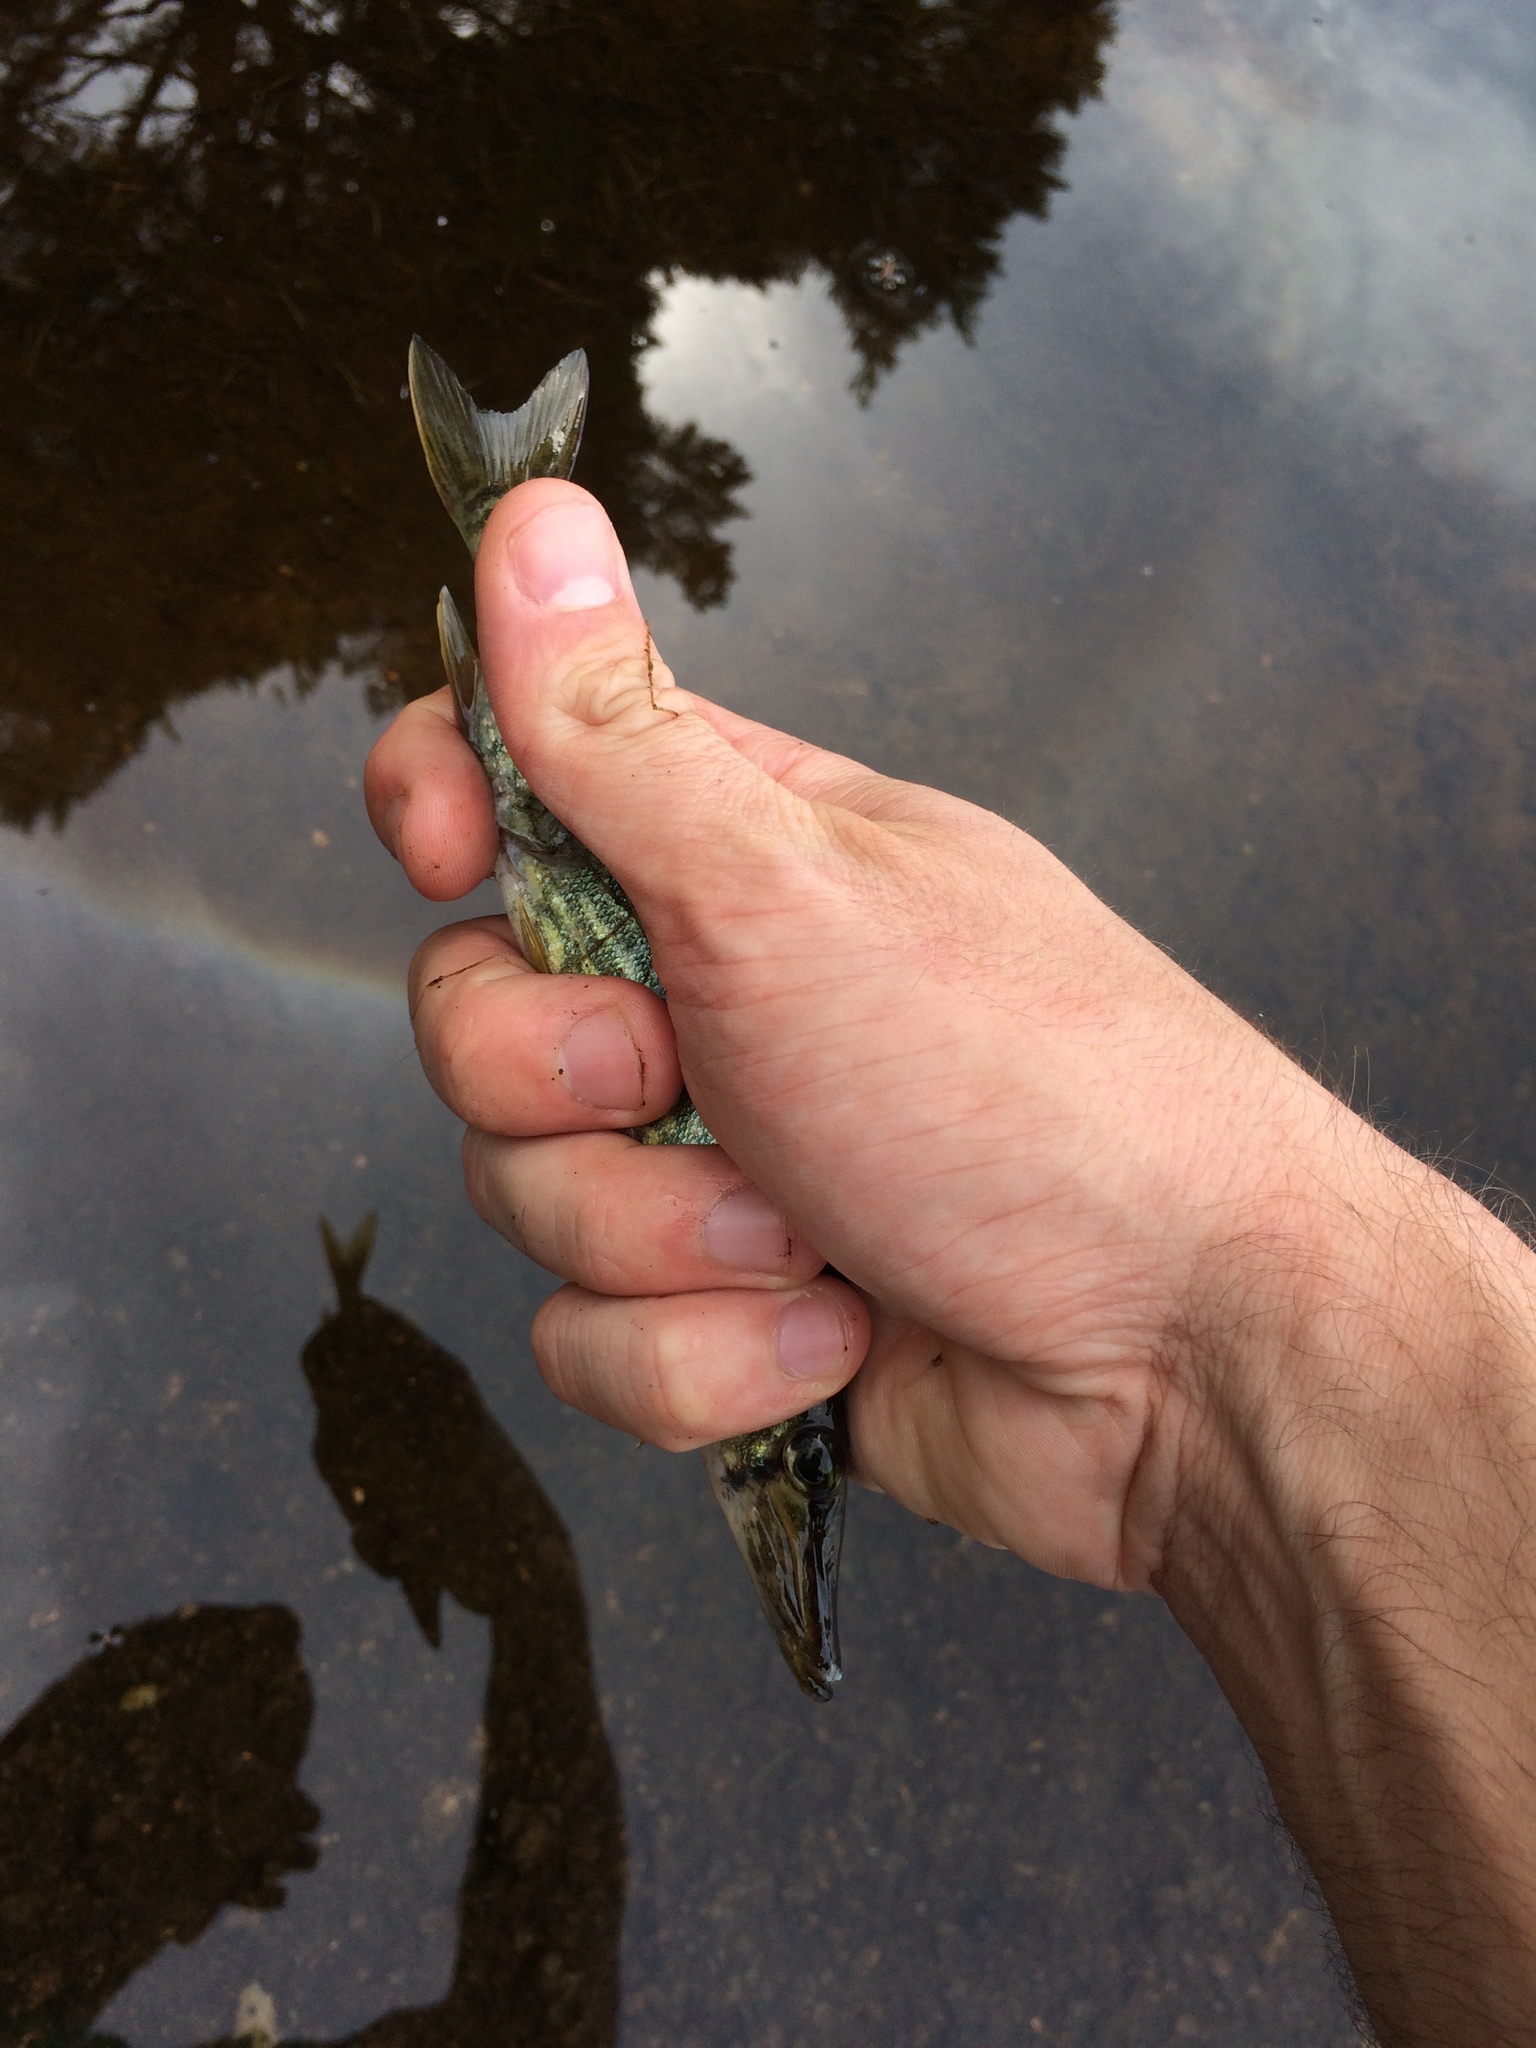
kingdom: Animalia
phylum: Chordata
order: Esociformes
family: Esocidae
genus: Esox
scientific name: Esox niger
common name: Chain pickerel
